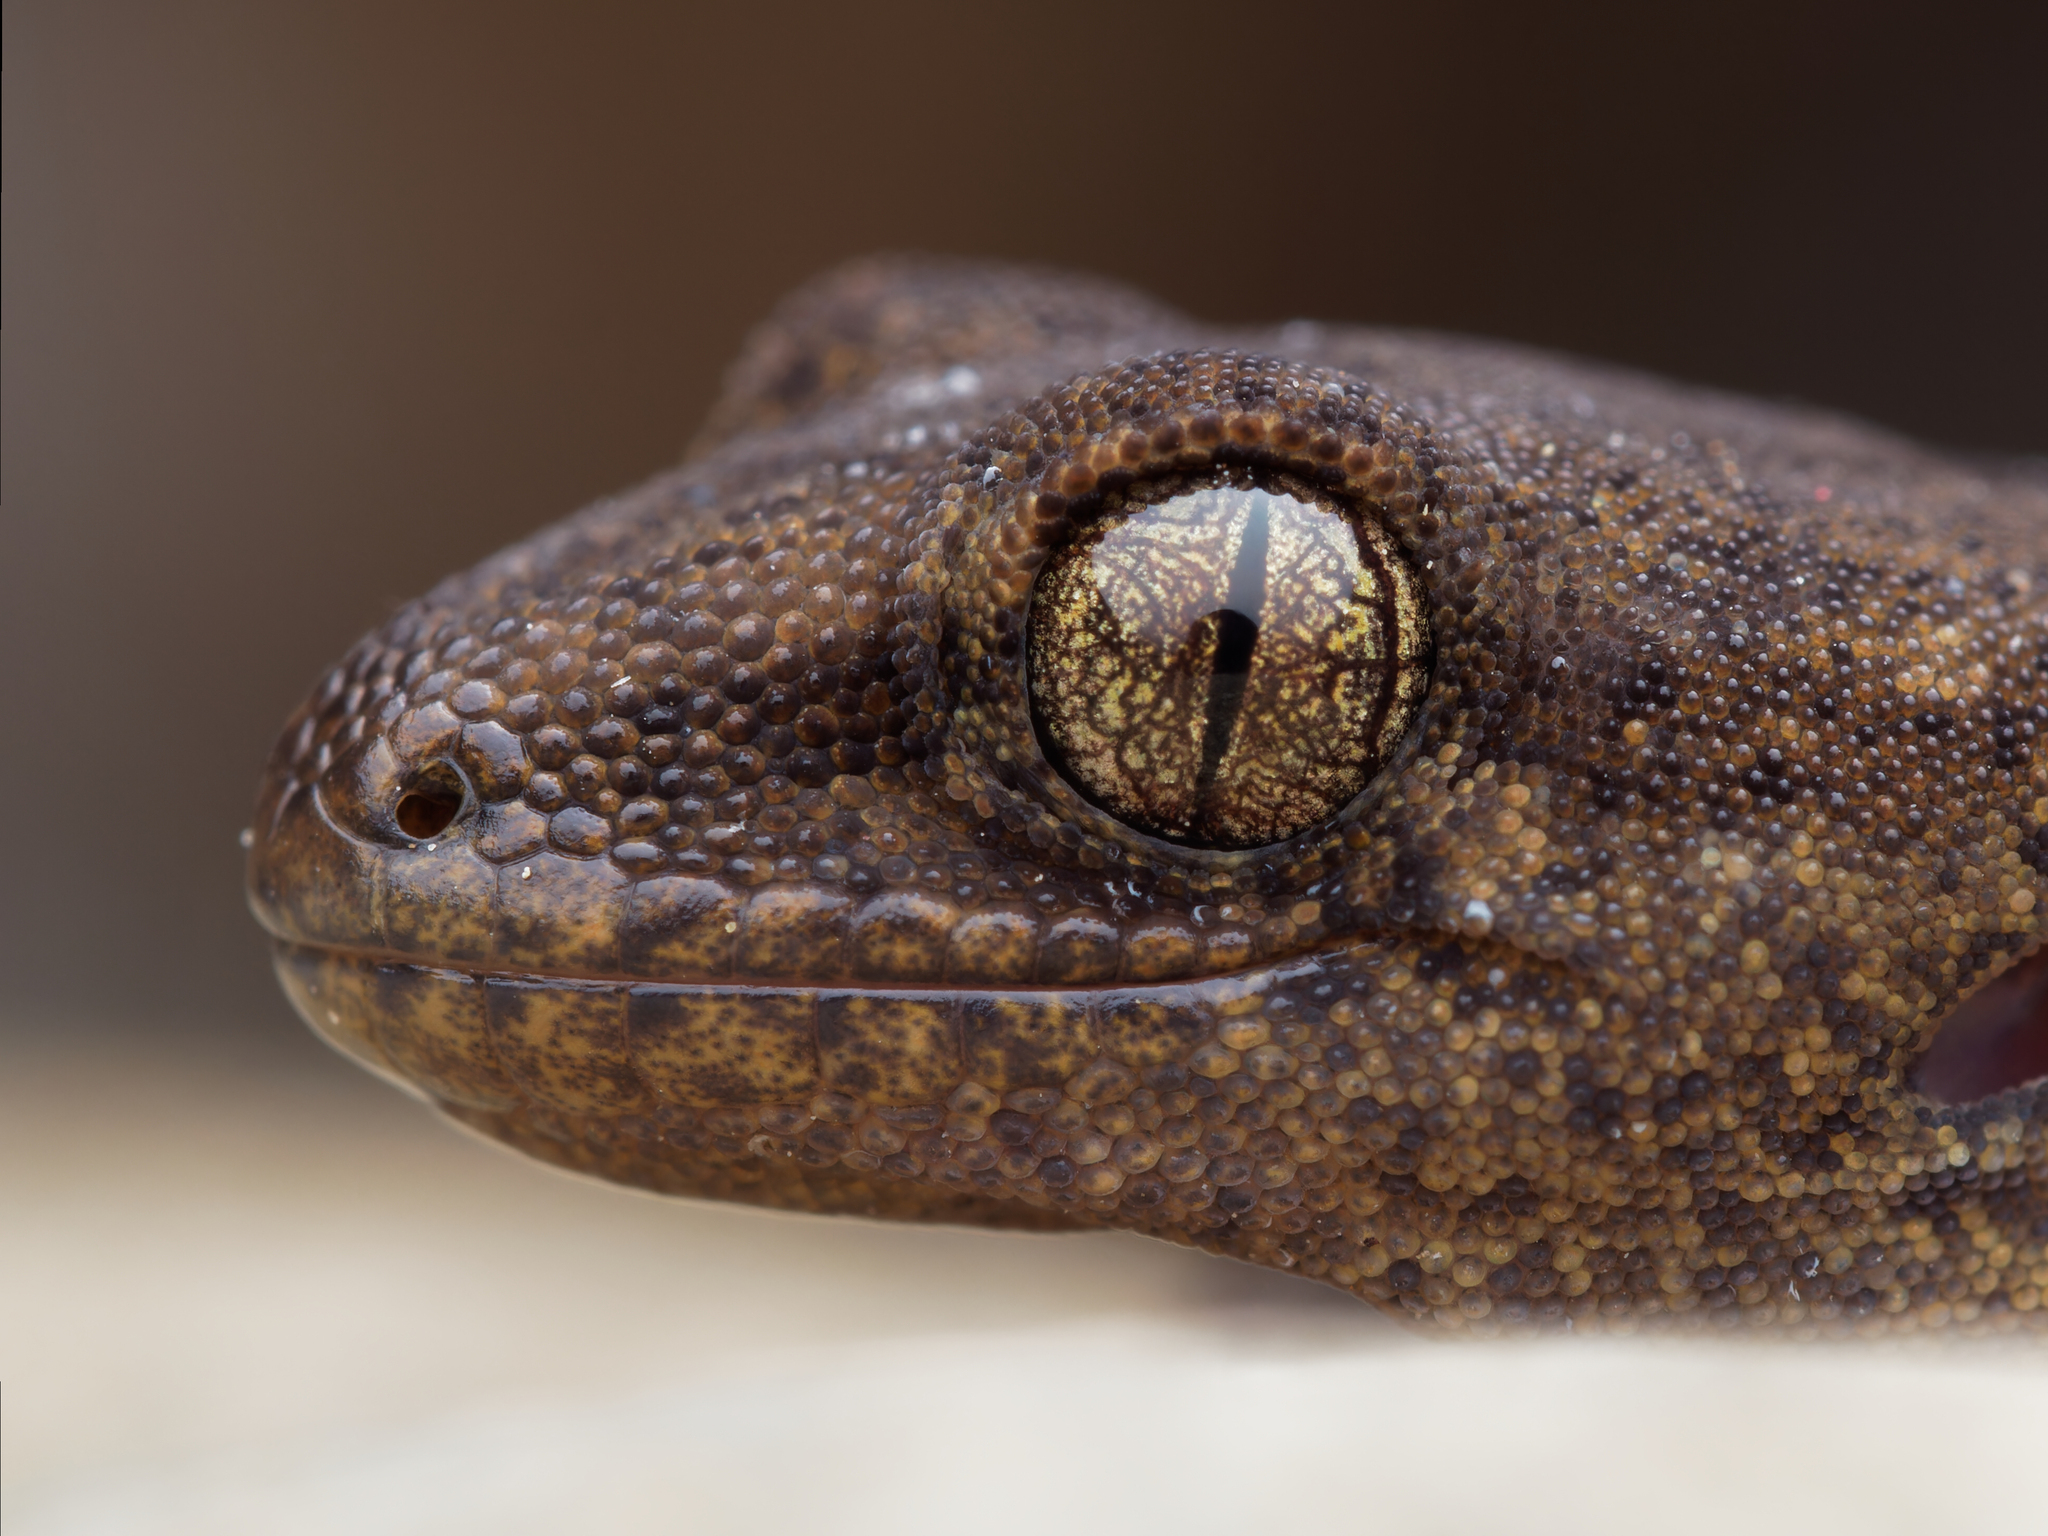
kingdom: Animalia
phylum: Chordata
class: Squamata
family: Diplodactylidae
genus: Woodworthia
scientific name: Woodworthia maculata
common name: Raukawa gecko
